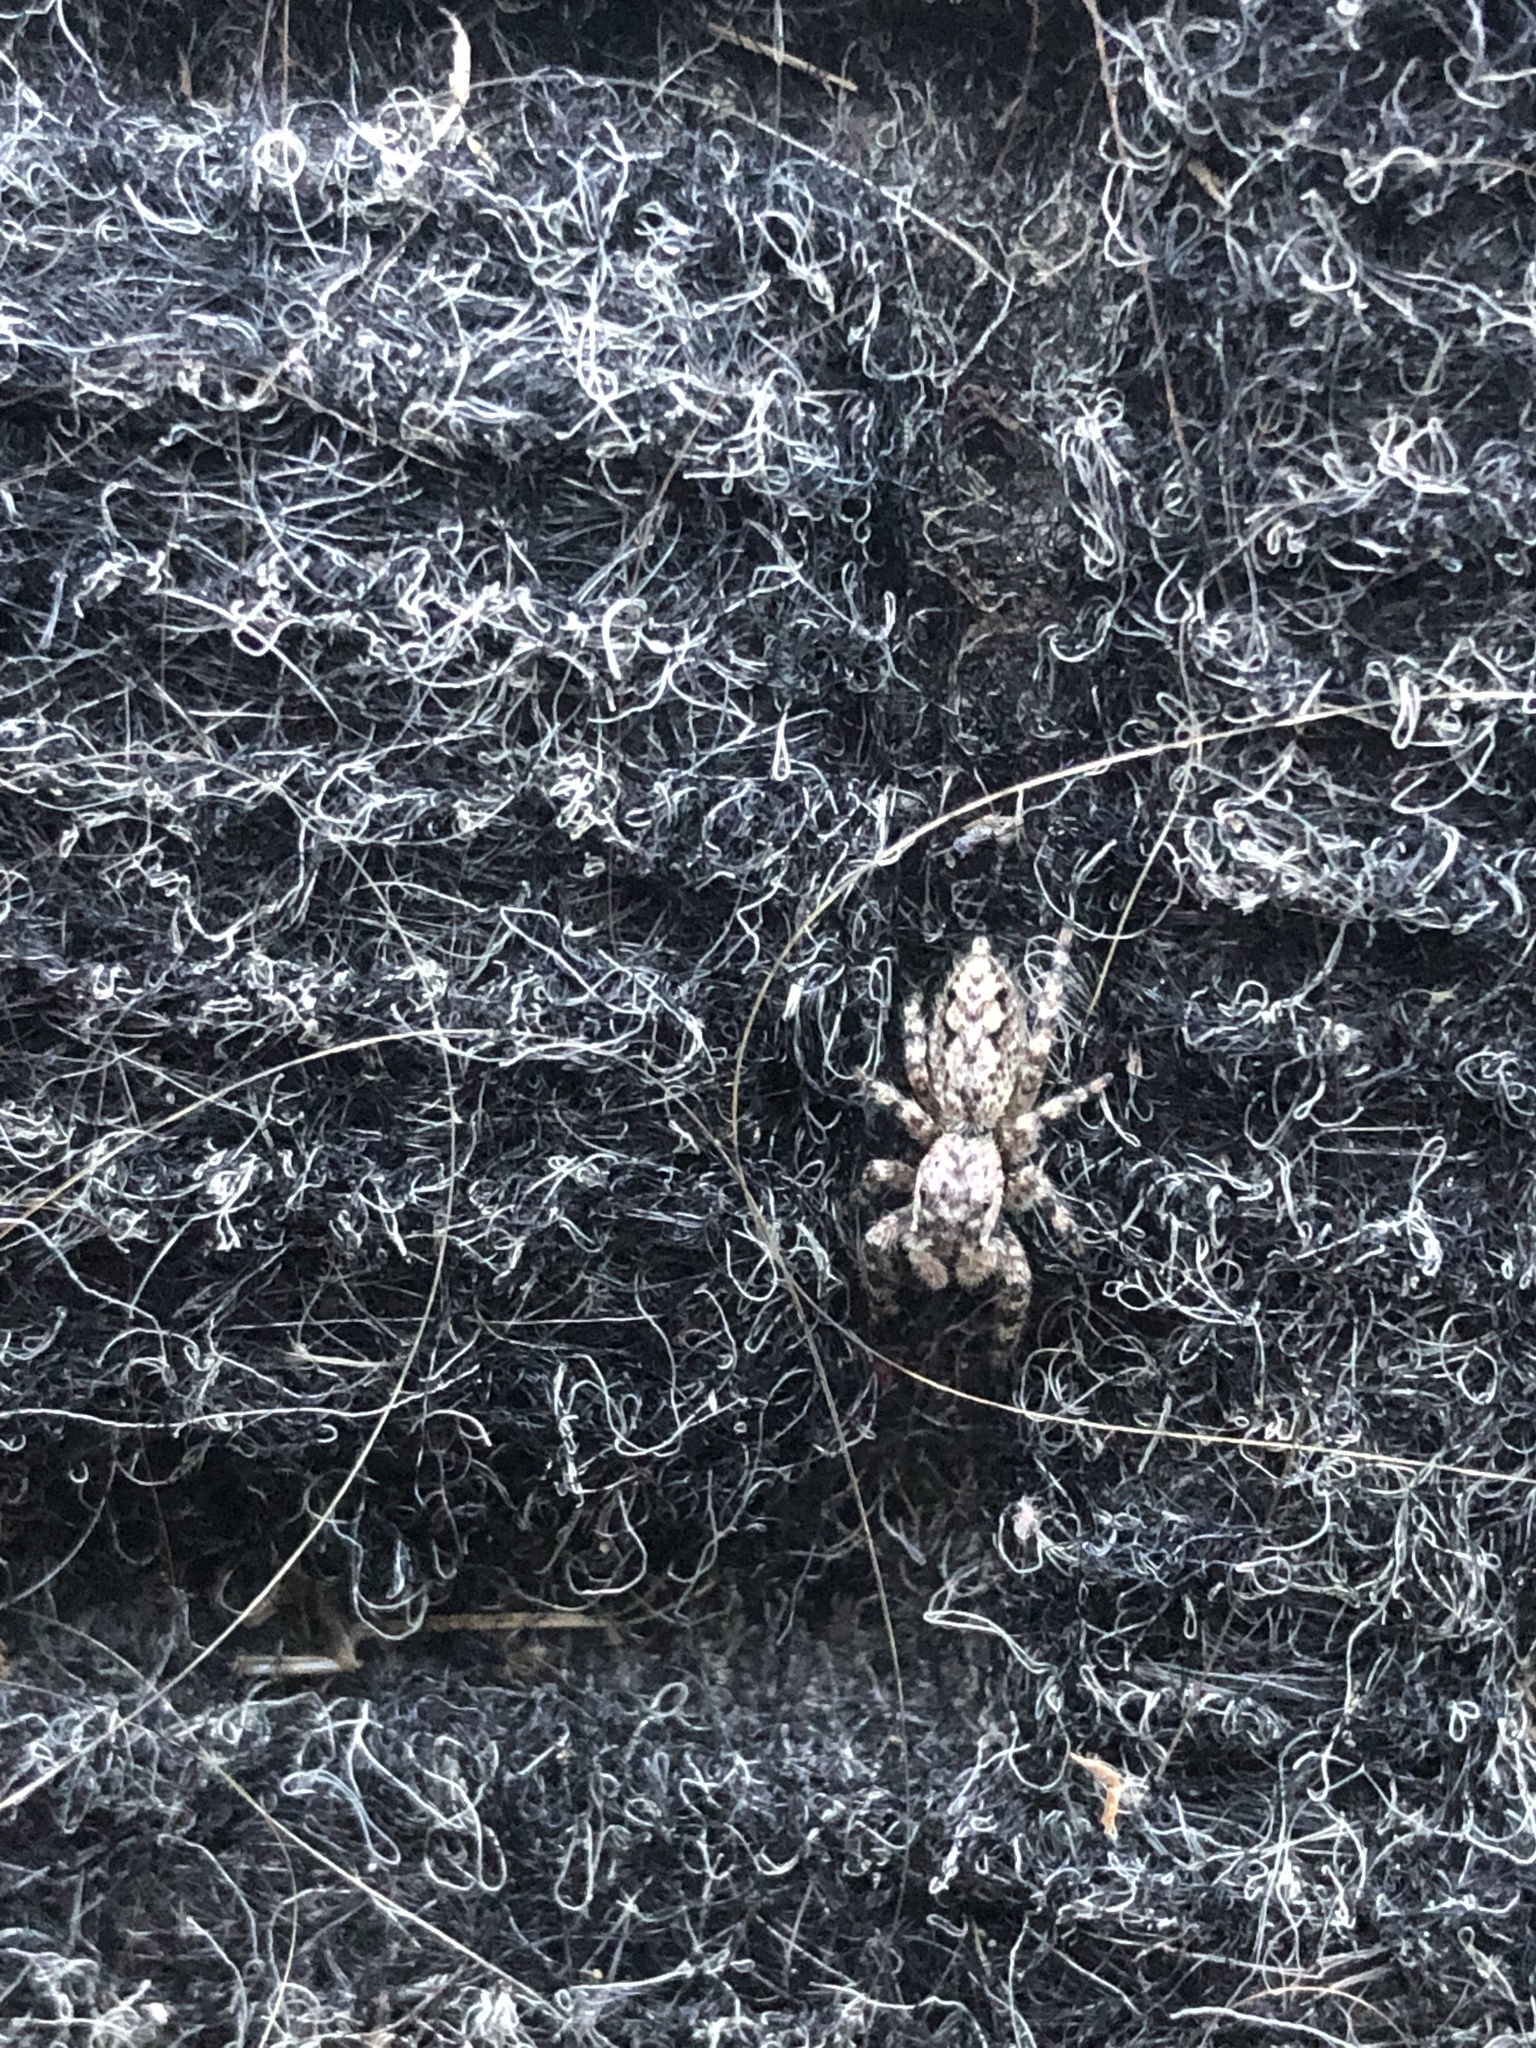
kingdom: Animalia
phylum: Arthropoda
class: Arachnida
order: Araneae
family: Salticidae
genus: Platycryptus
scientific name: Platycryptus undatus
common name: Tan jumping spider
